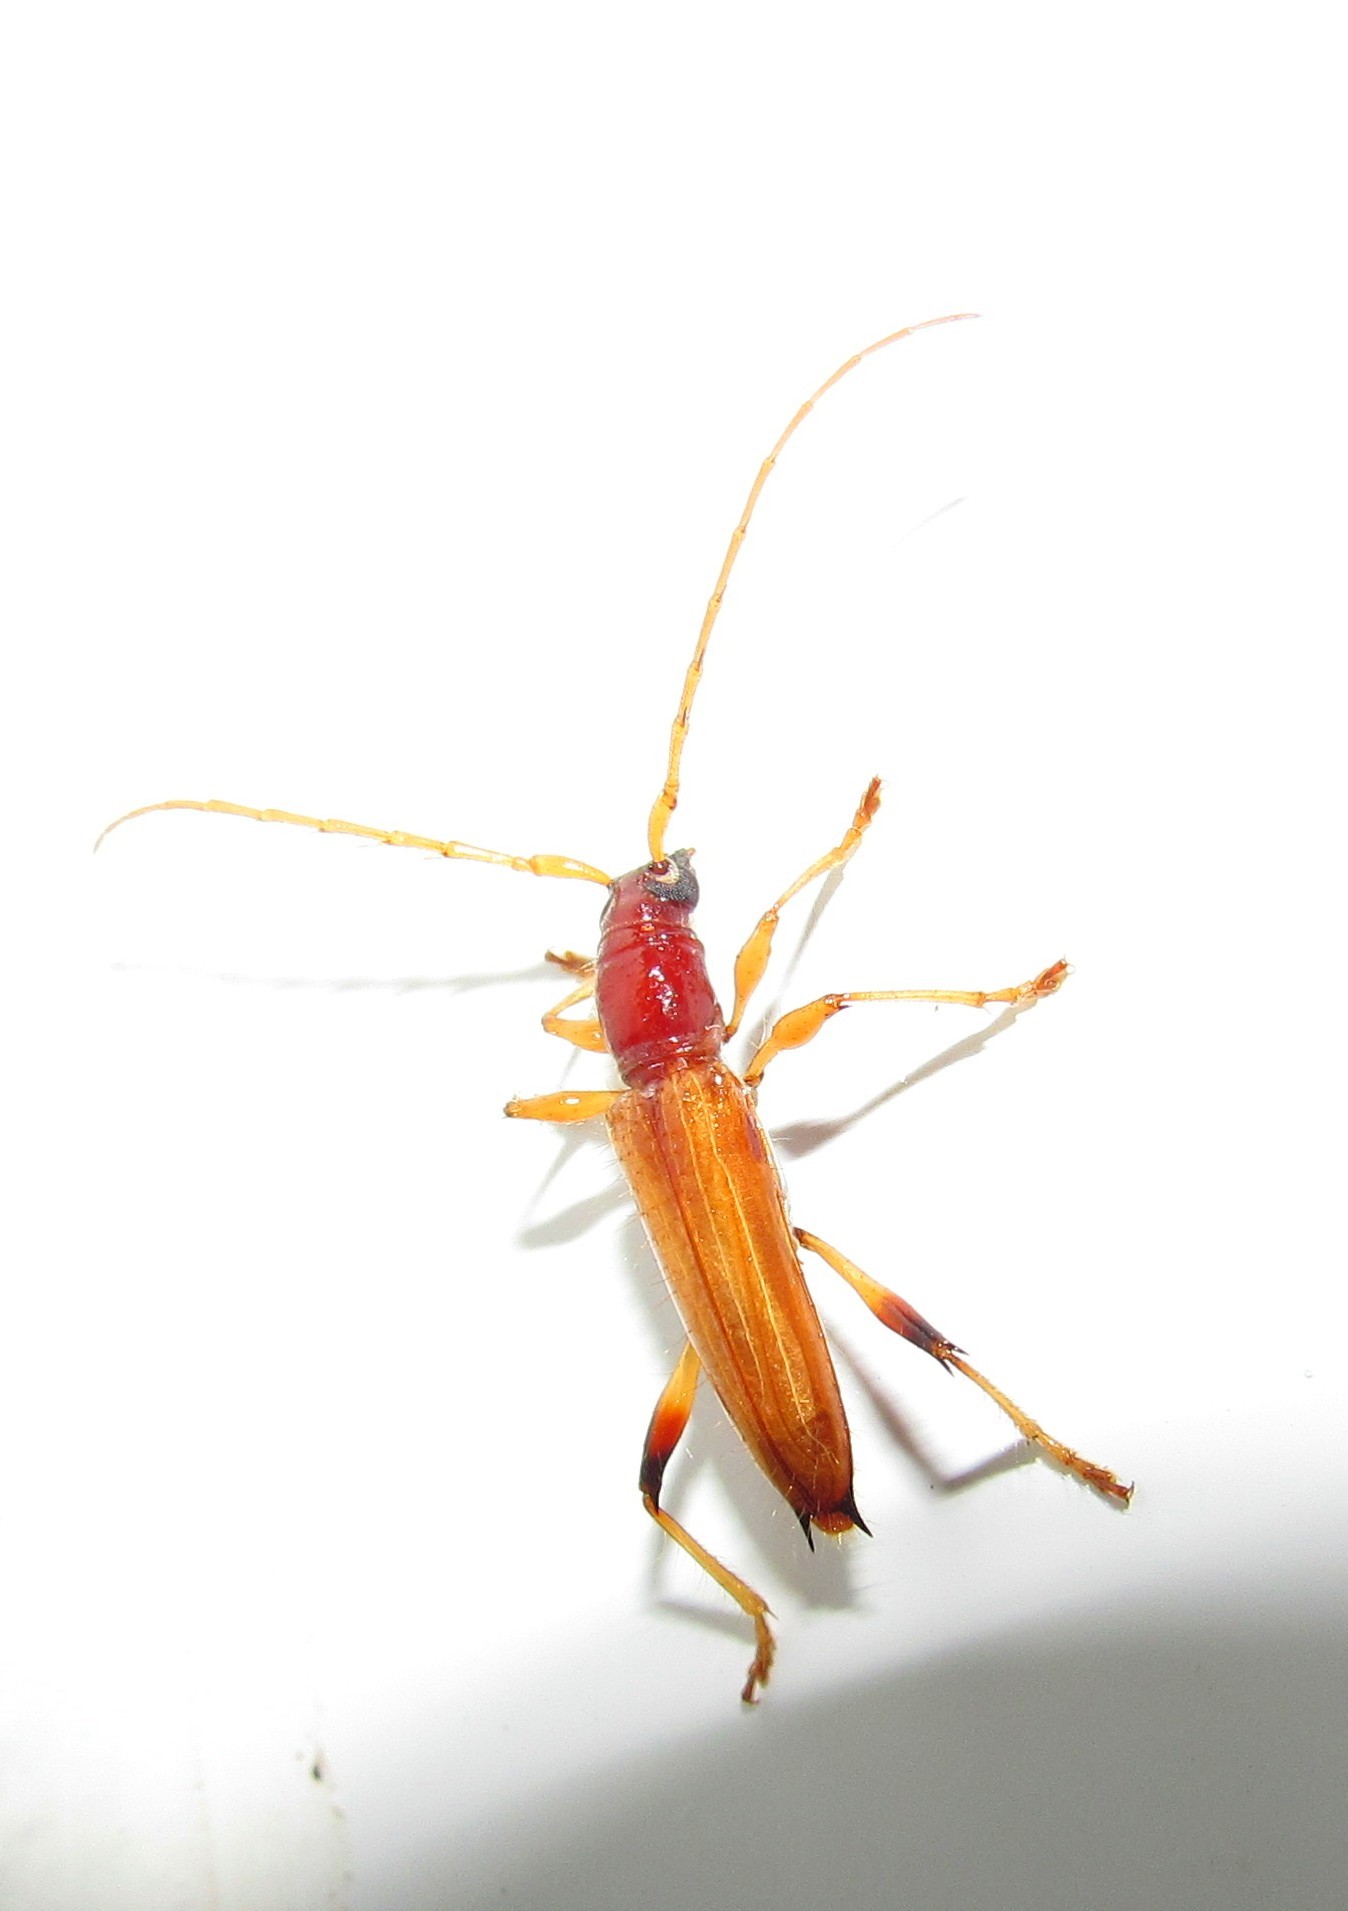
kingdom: Animalia
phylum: Arthropoda
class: Insecta
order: Coleoptera
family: Cerambycidae
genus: Stizocera
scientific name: Stizocera diversispinis
